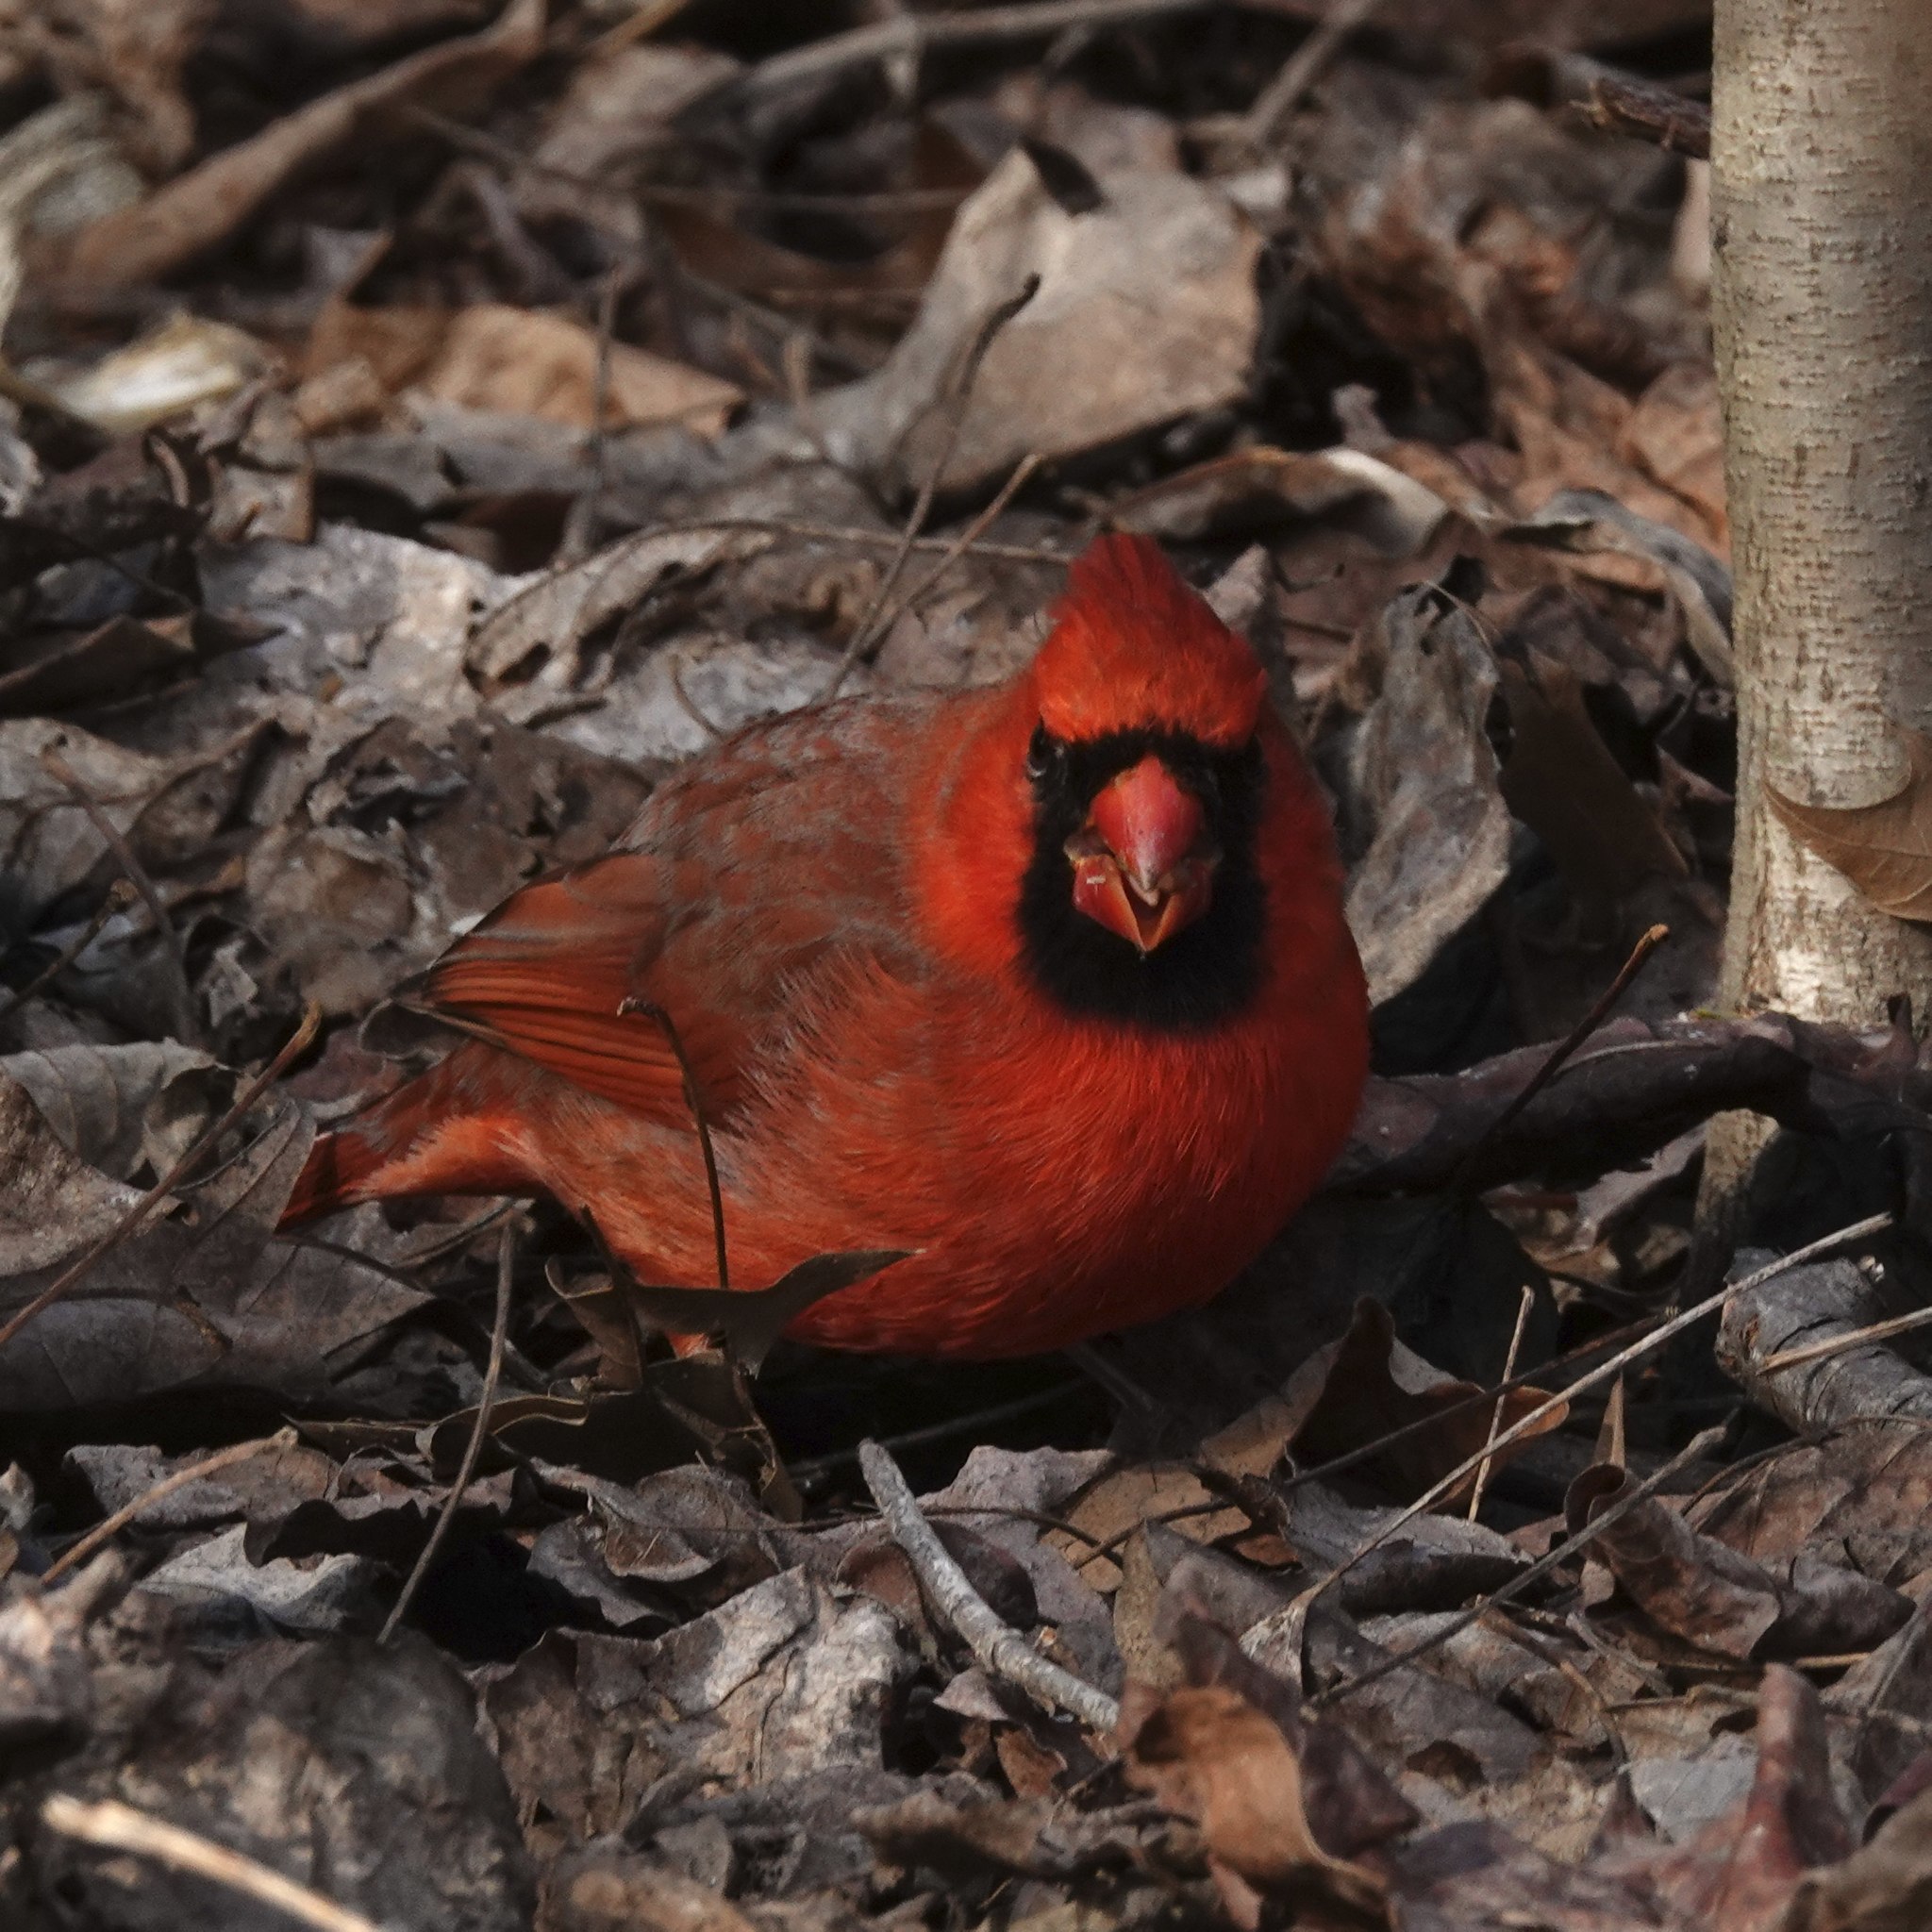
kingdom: Animalia
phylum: Chordata
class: Aves
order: Passeriformes
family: Cardinalidae
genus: Cardinalis
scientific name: Cardinalis cardinalis
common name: Northern cardinal
